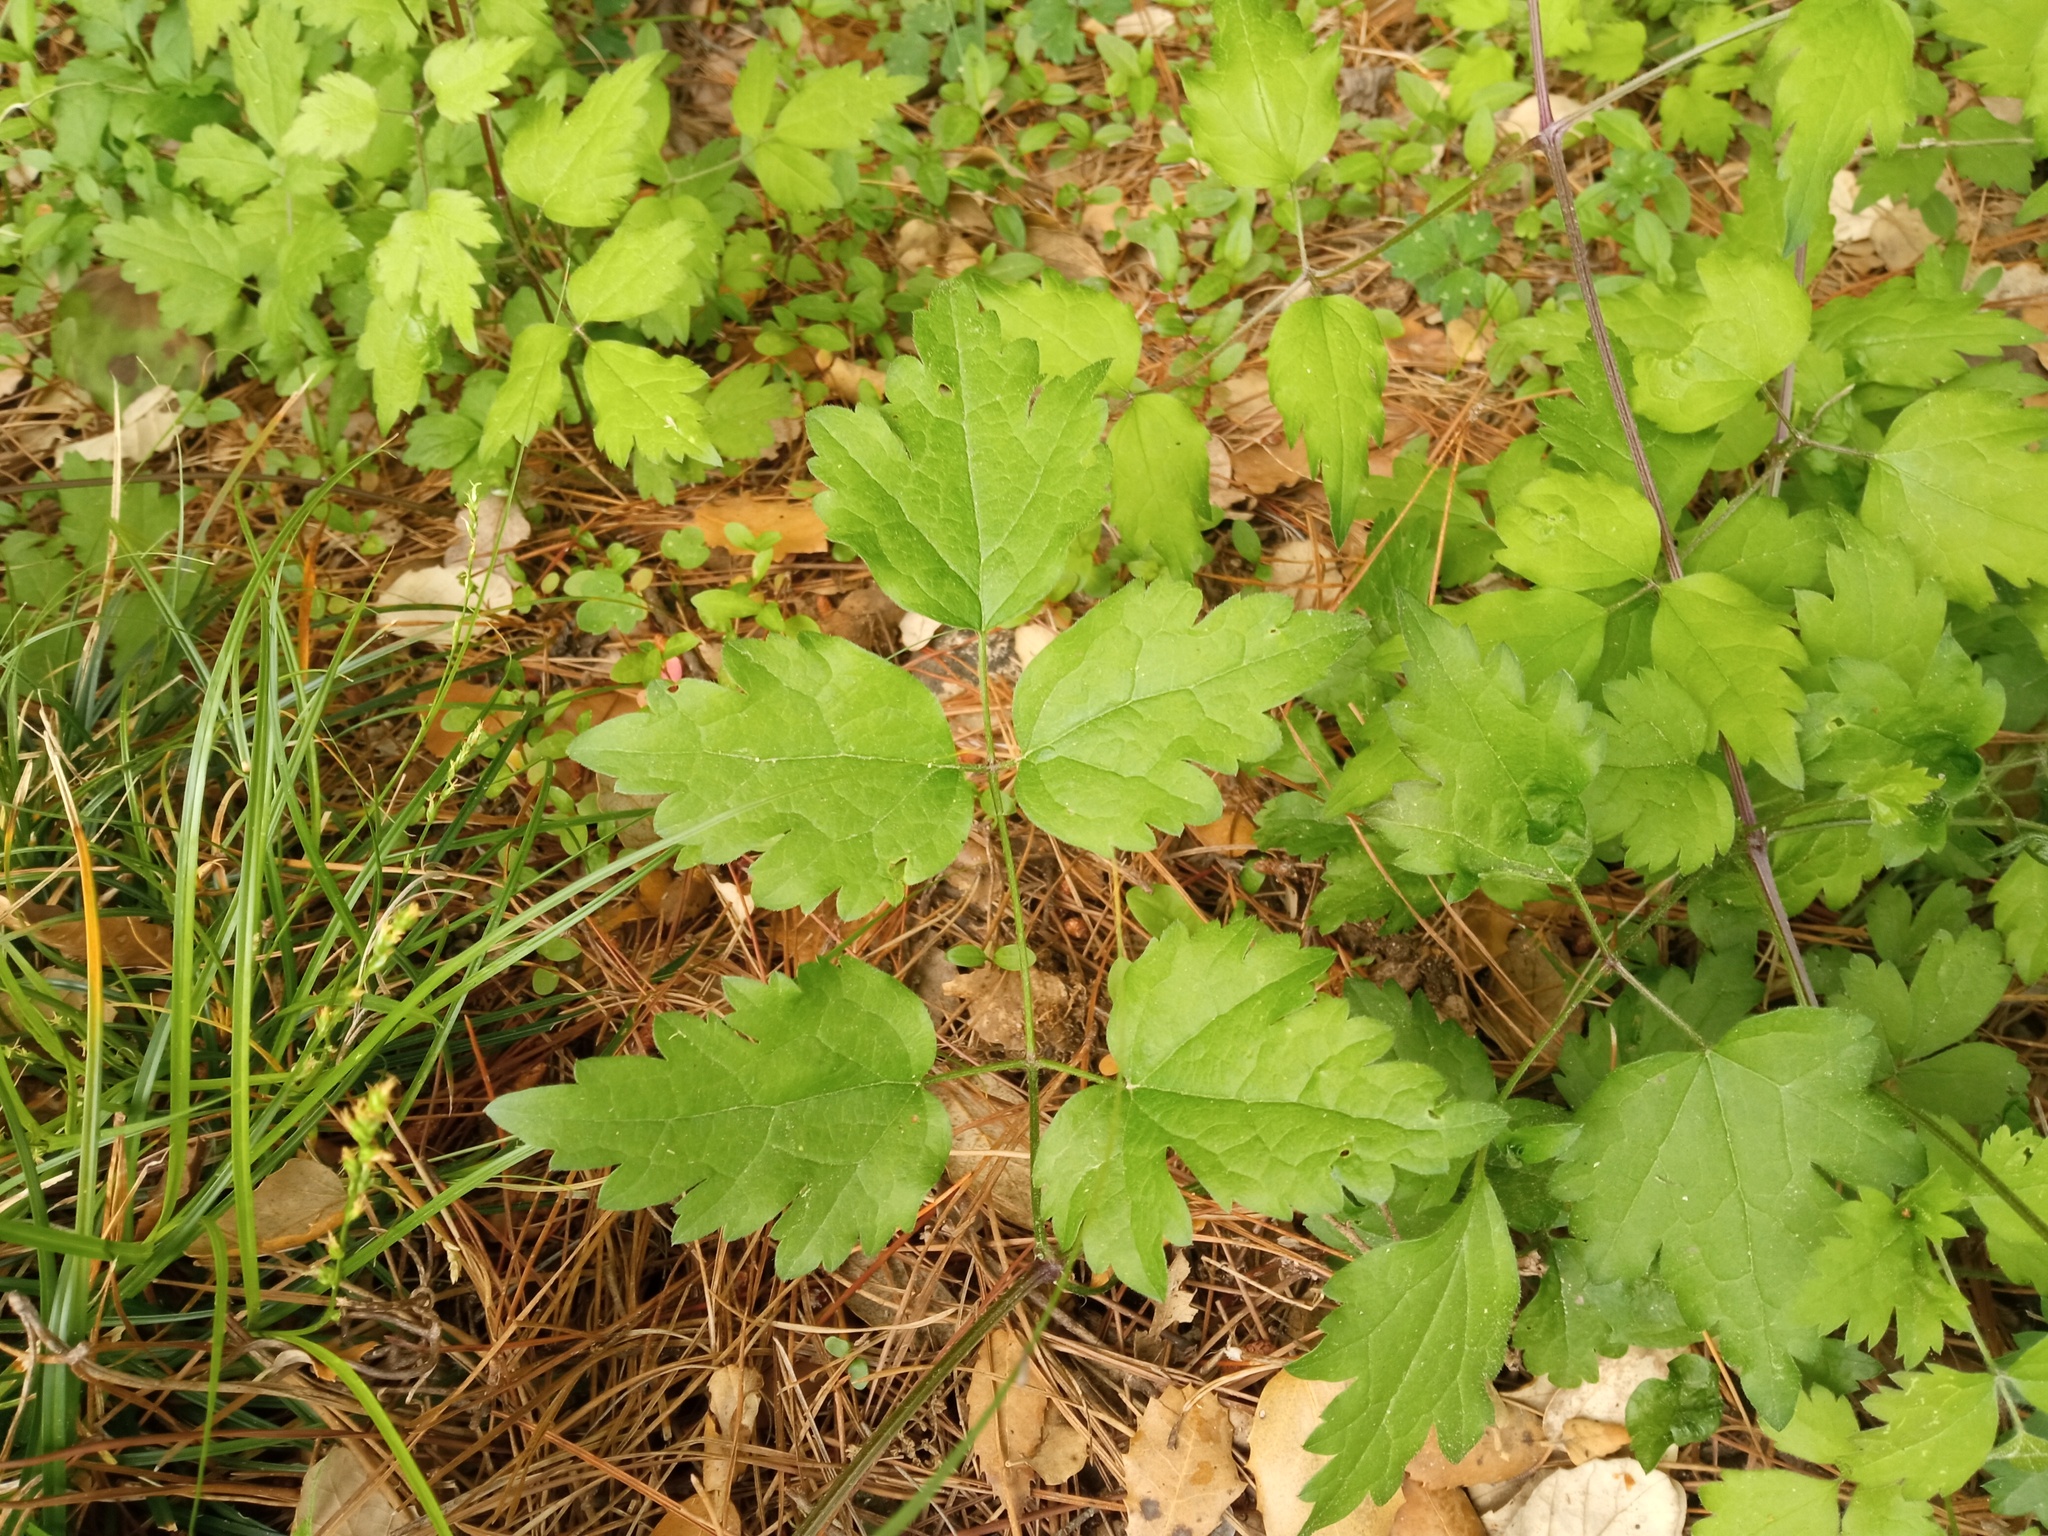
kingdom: Plantae
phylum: Tracheophyta
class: Magnoliopsida
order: Ranunculales
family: Ranunculaceae
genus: Clematis
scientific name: Clematis vitalba
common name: Evergreen clematis
